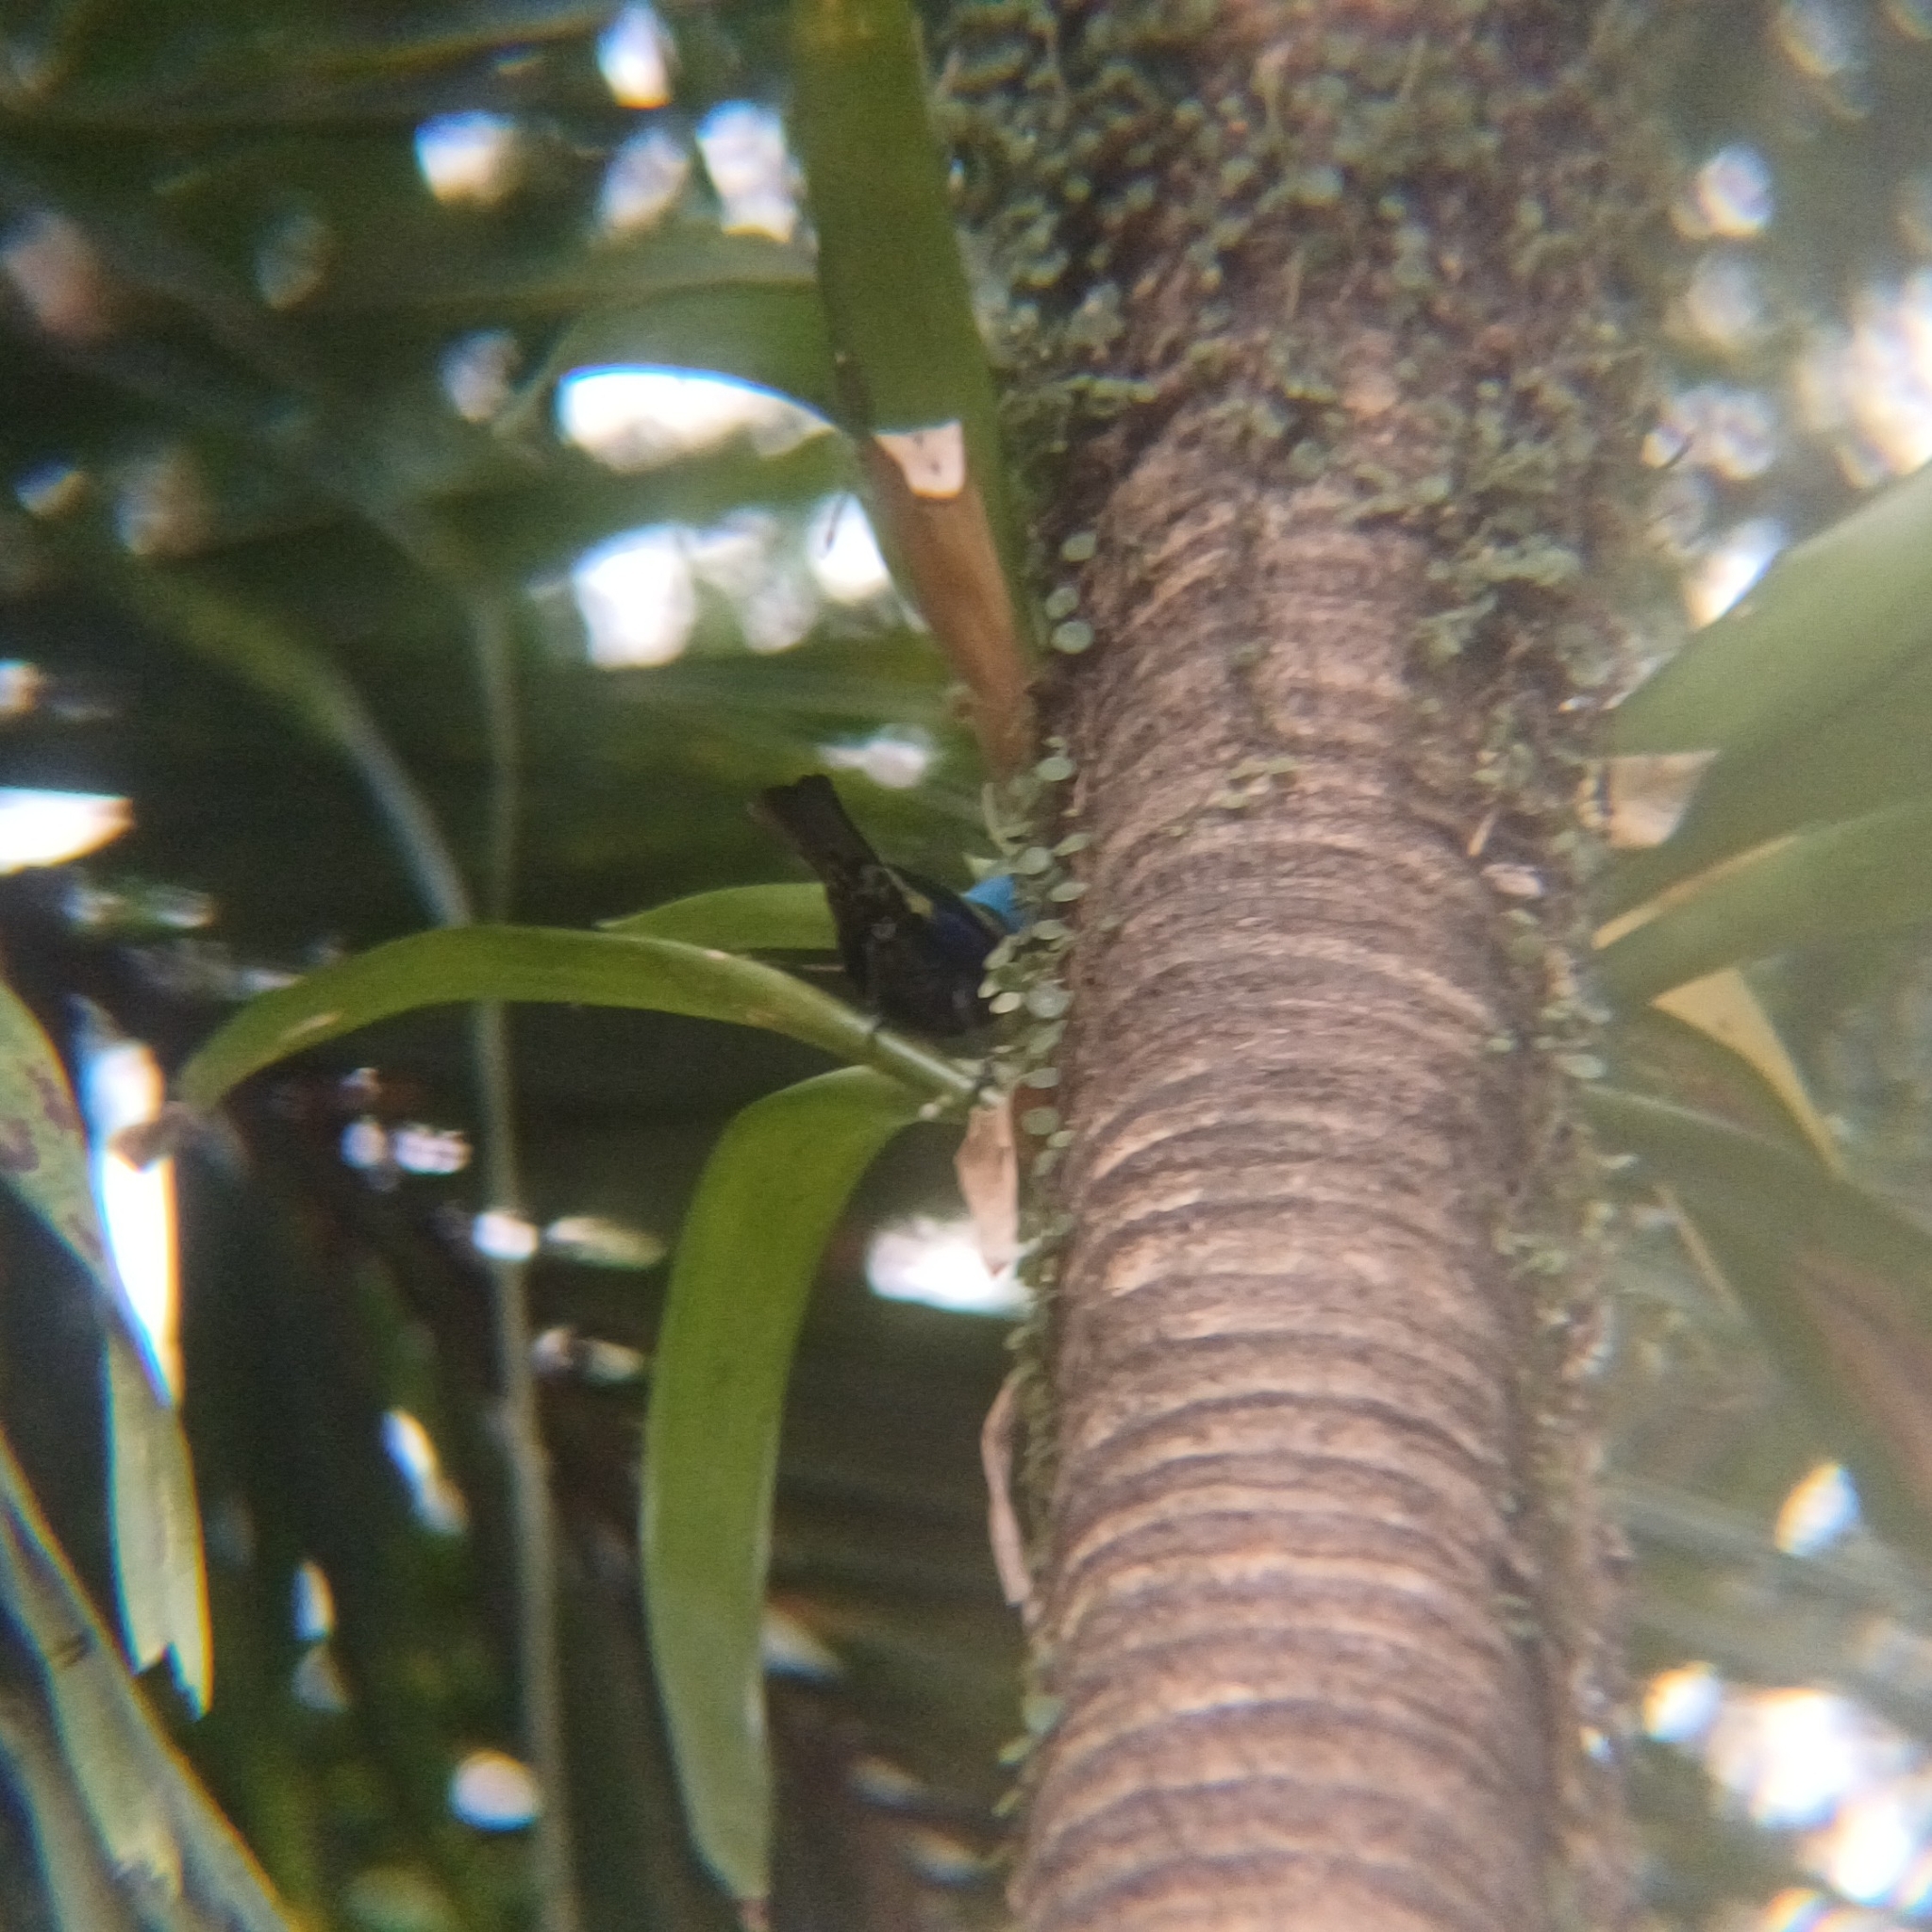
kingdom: Animalia
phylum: Chordata
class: Aves
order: Passeriformes
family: Thraupidae
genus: Stilpnia
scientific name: Stilpnia cyanicollis
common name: Blue-necked tanager
